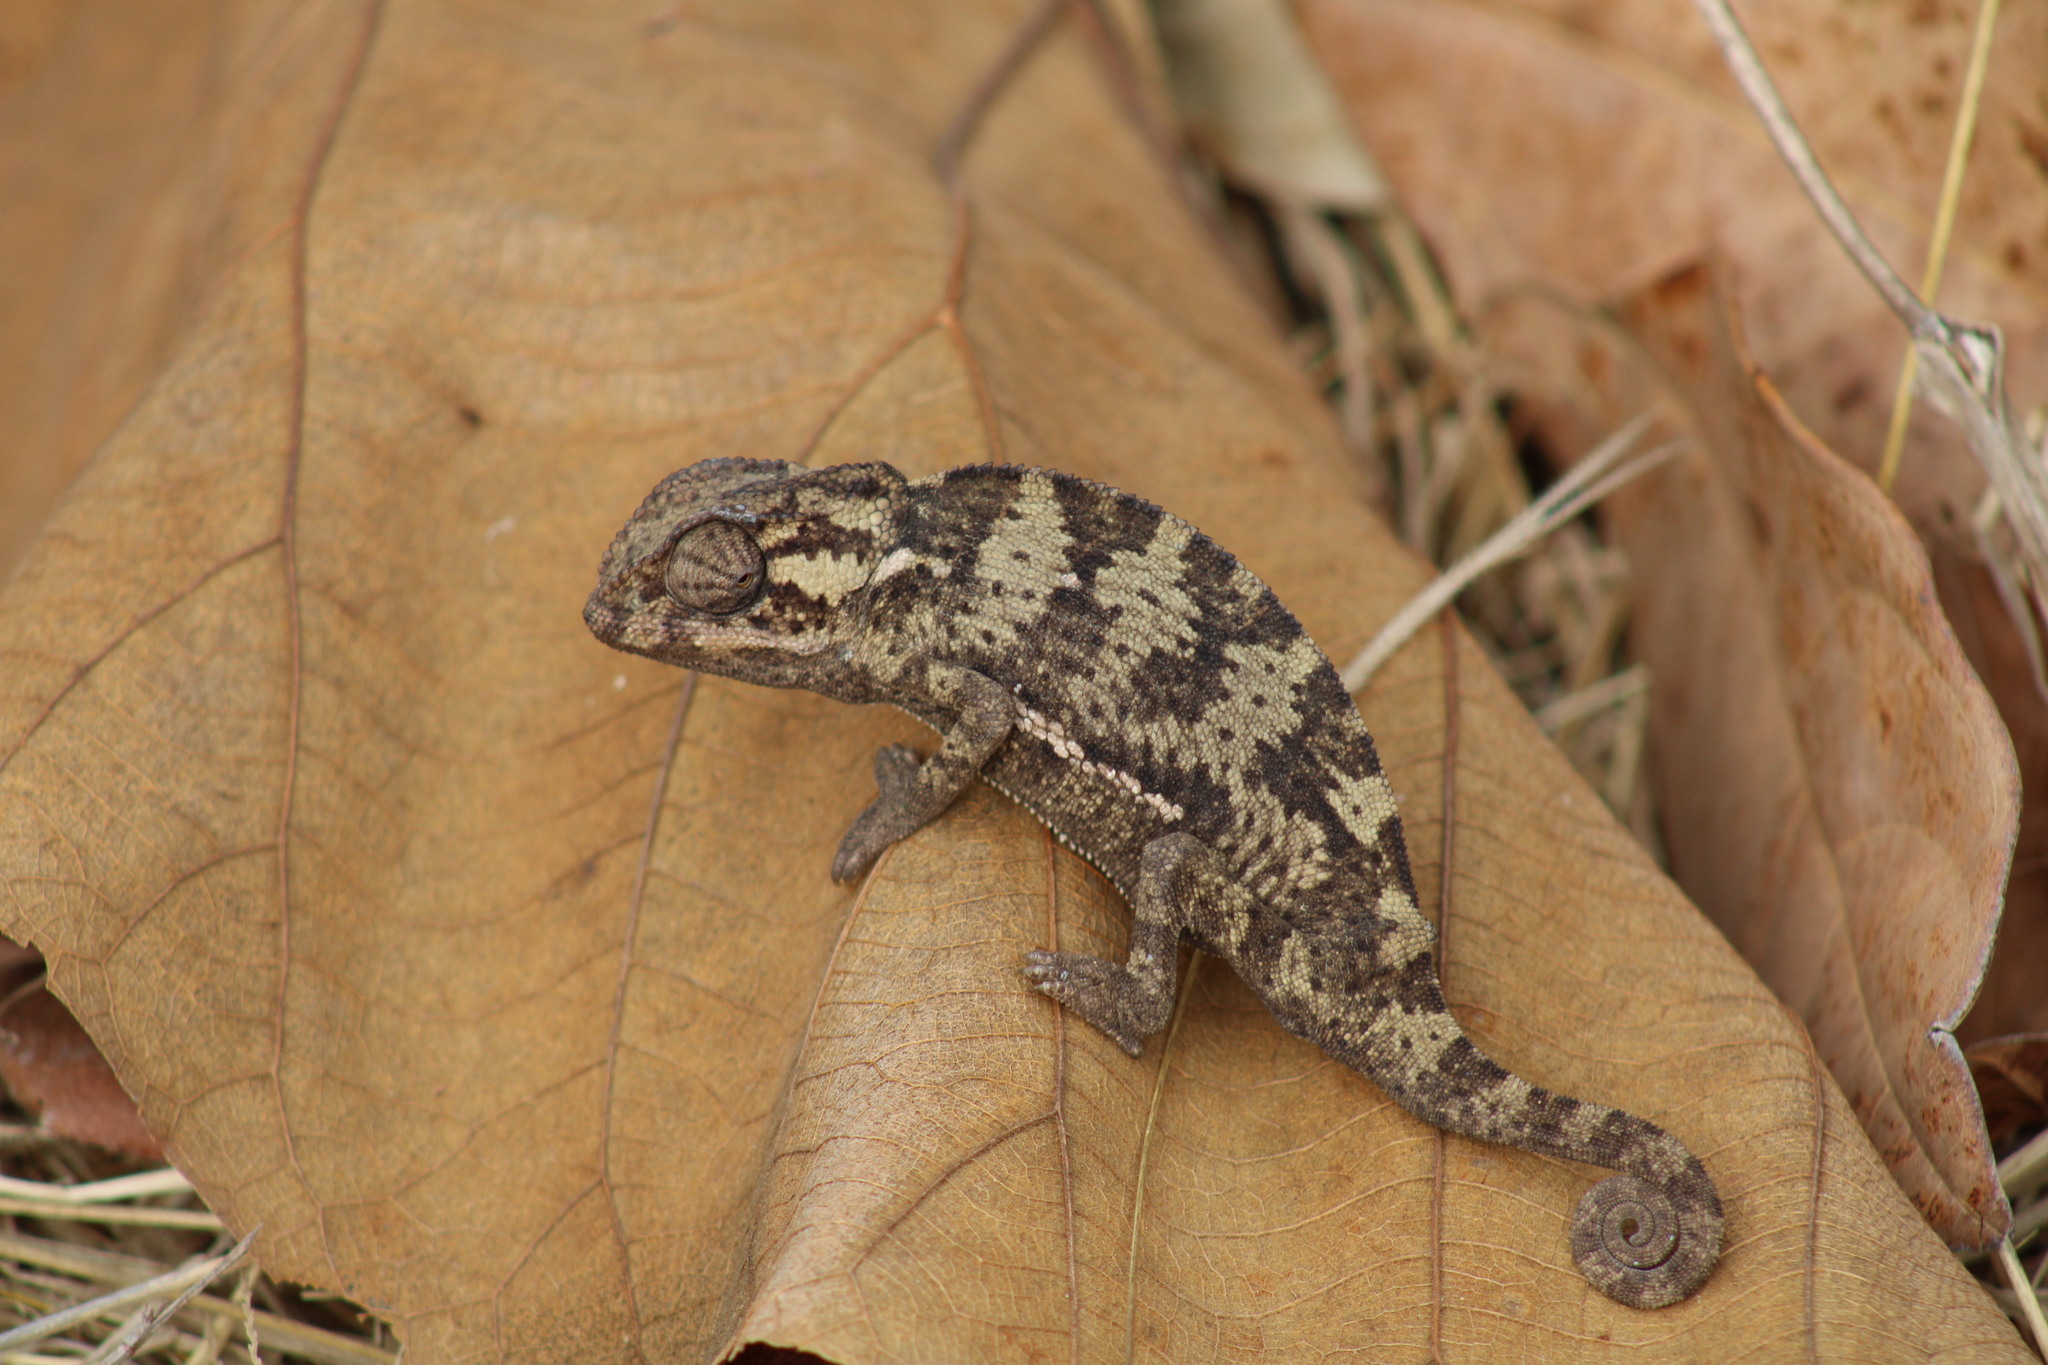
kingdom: Animalia
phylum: Chordata
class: Squamata
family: Chamaeleonidae
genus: Chamaeleo
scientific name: Chamaeleo dilepis
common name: Flapneck chameleon
